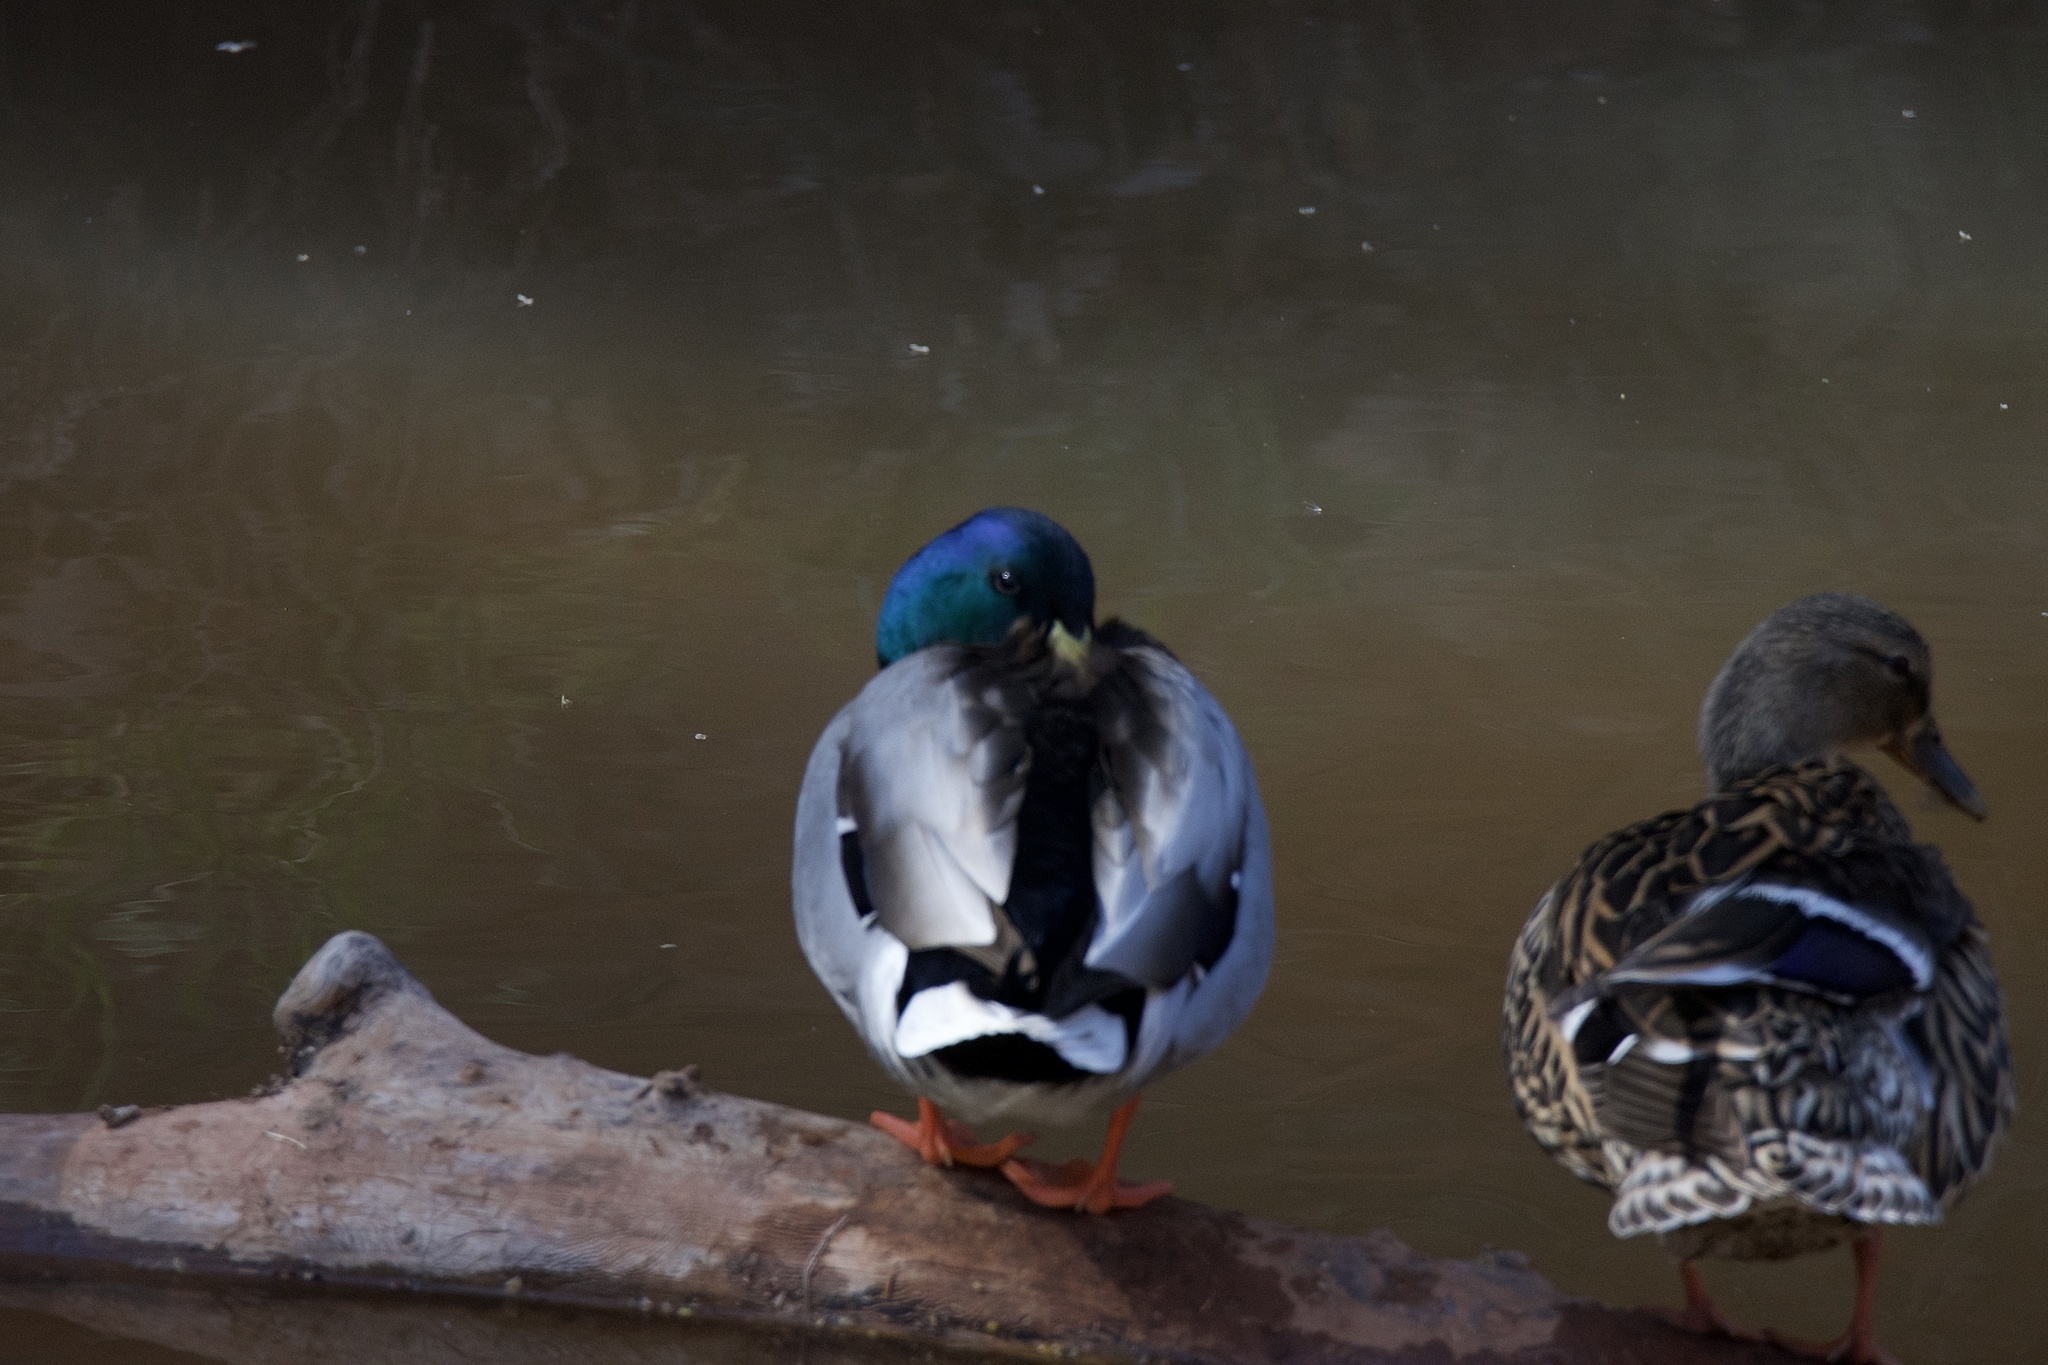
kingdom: Animalia
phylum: Chordata
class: Aves
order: Anseriformes
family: Anatidae
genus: Anas
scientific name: Anas platyrhynchos
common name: Mallard
